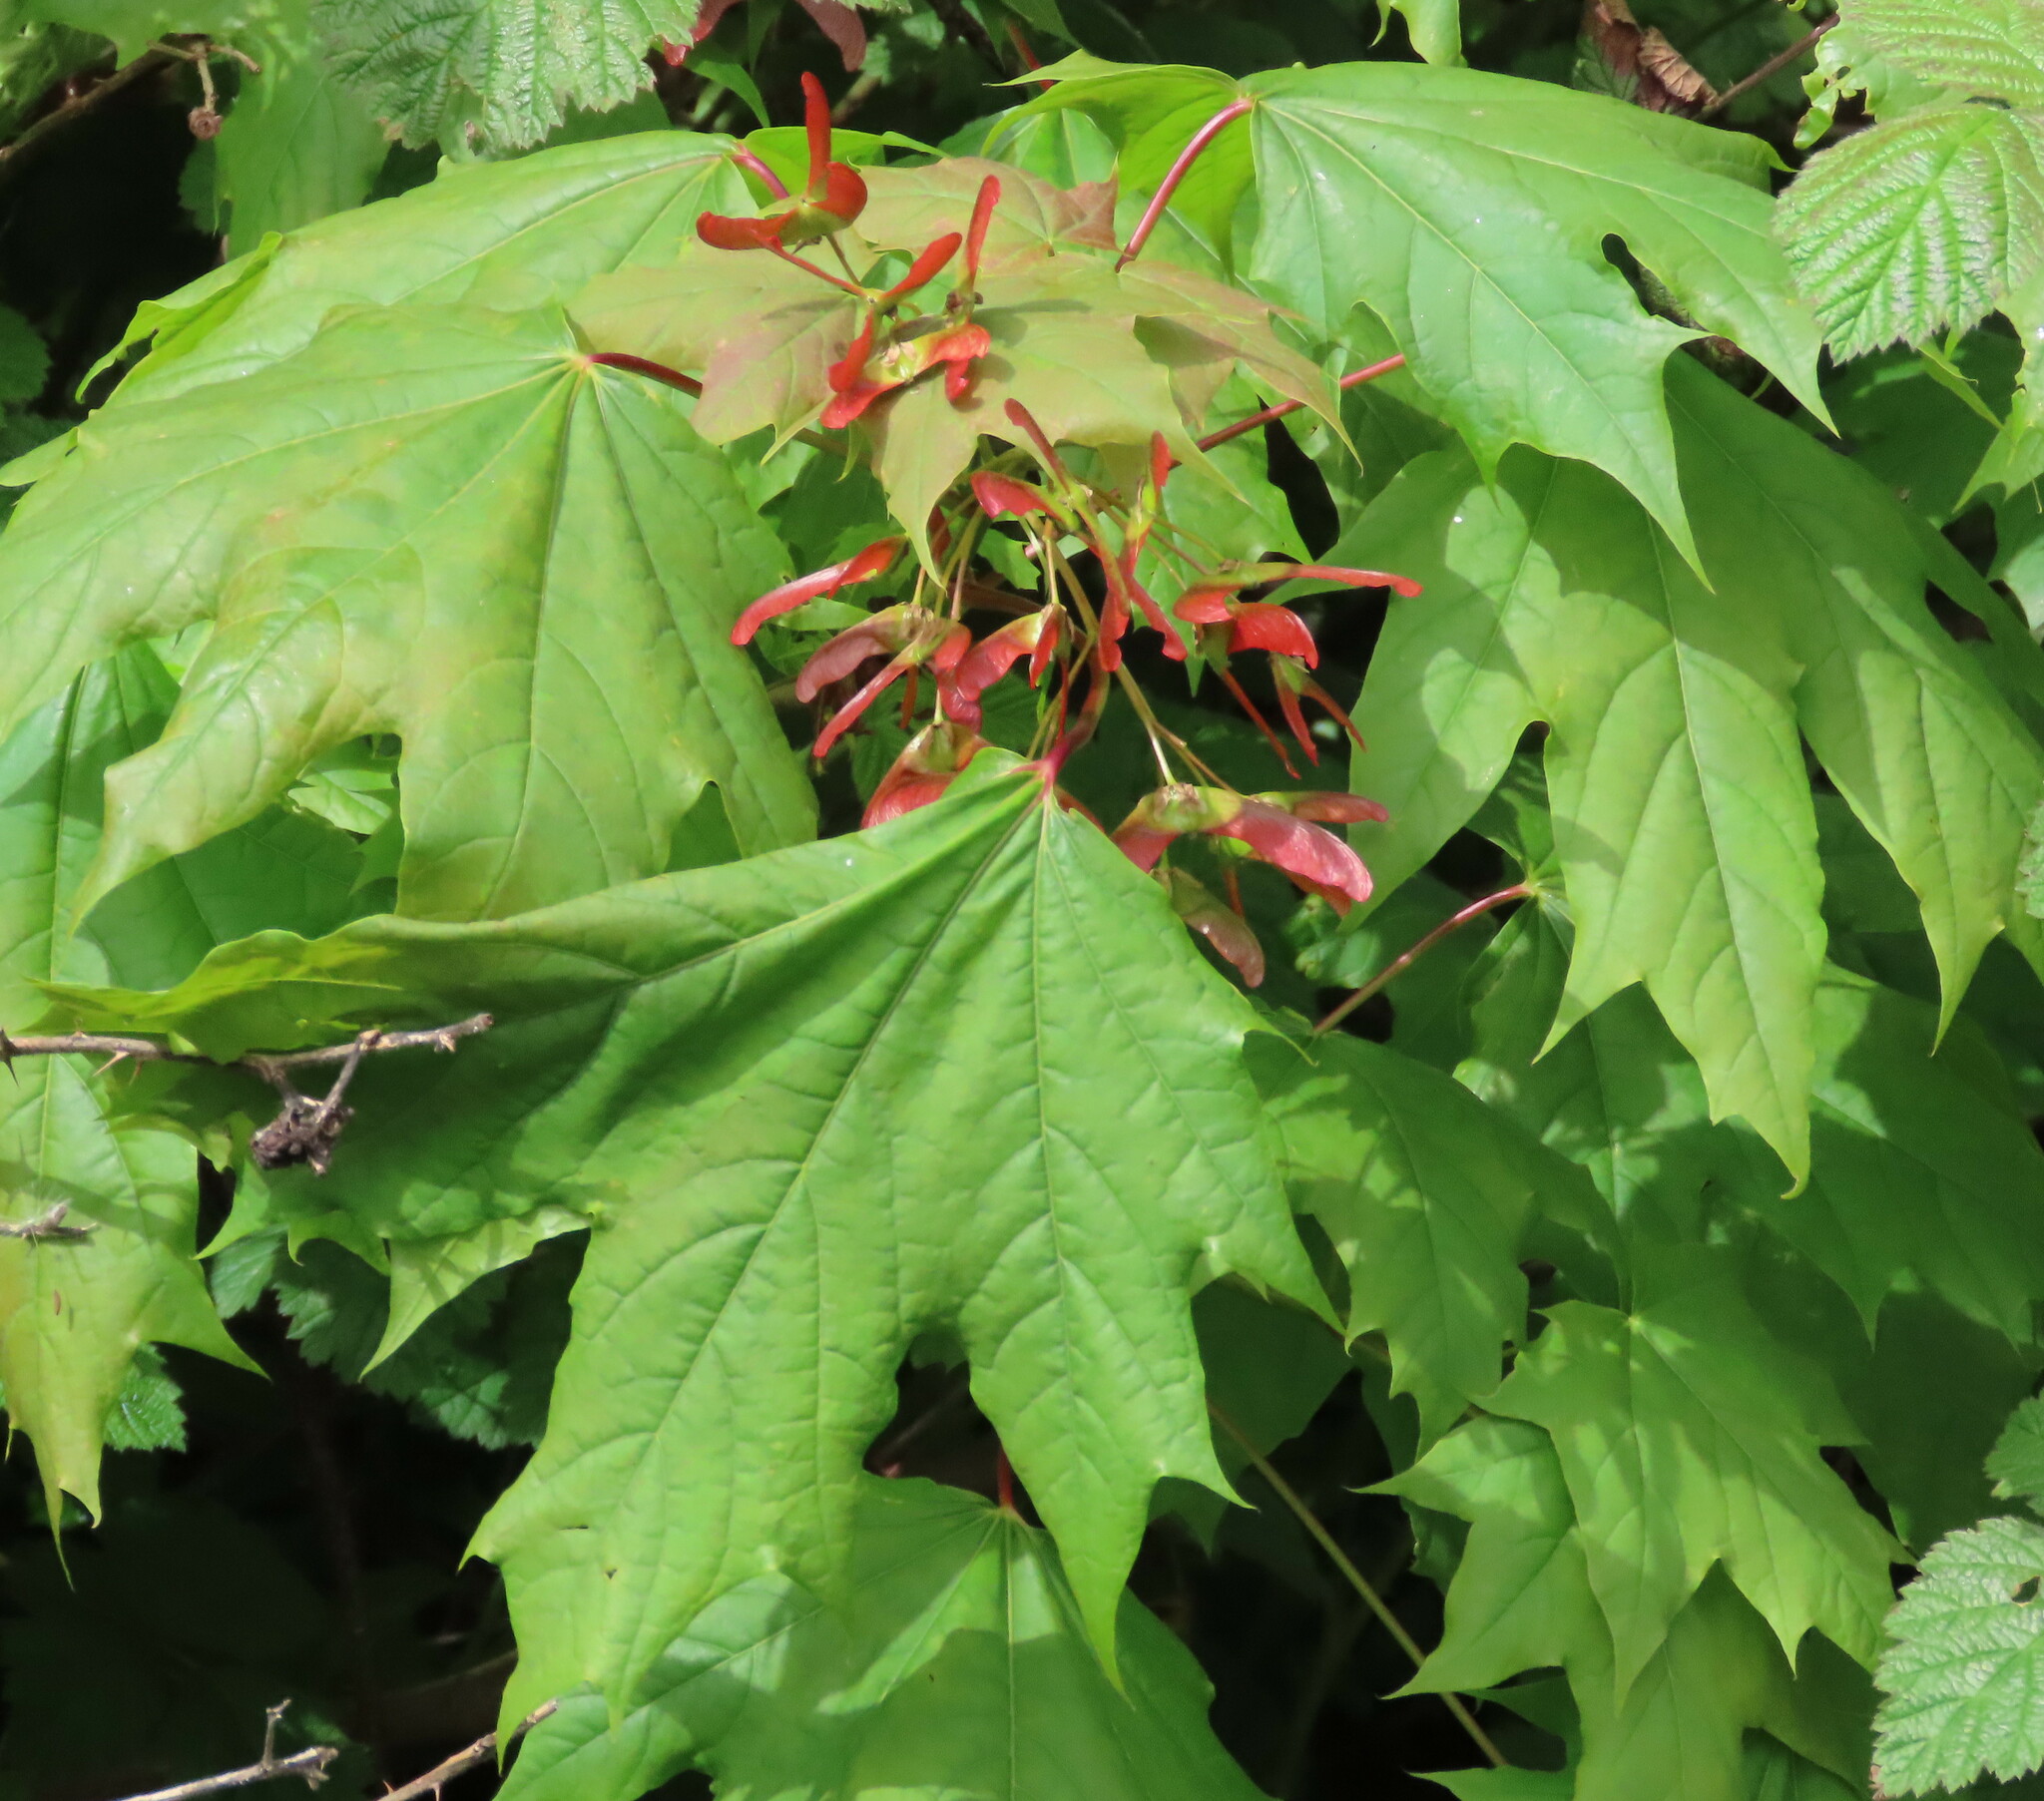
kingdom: Plantae
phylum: Tracheophyta
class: Magnoliopsida
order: Sapindales
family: Sapindaceae
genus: Acer
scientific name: Acer platanoides
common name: Norway maple
